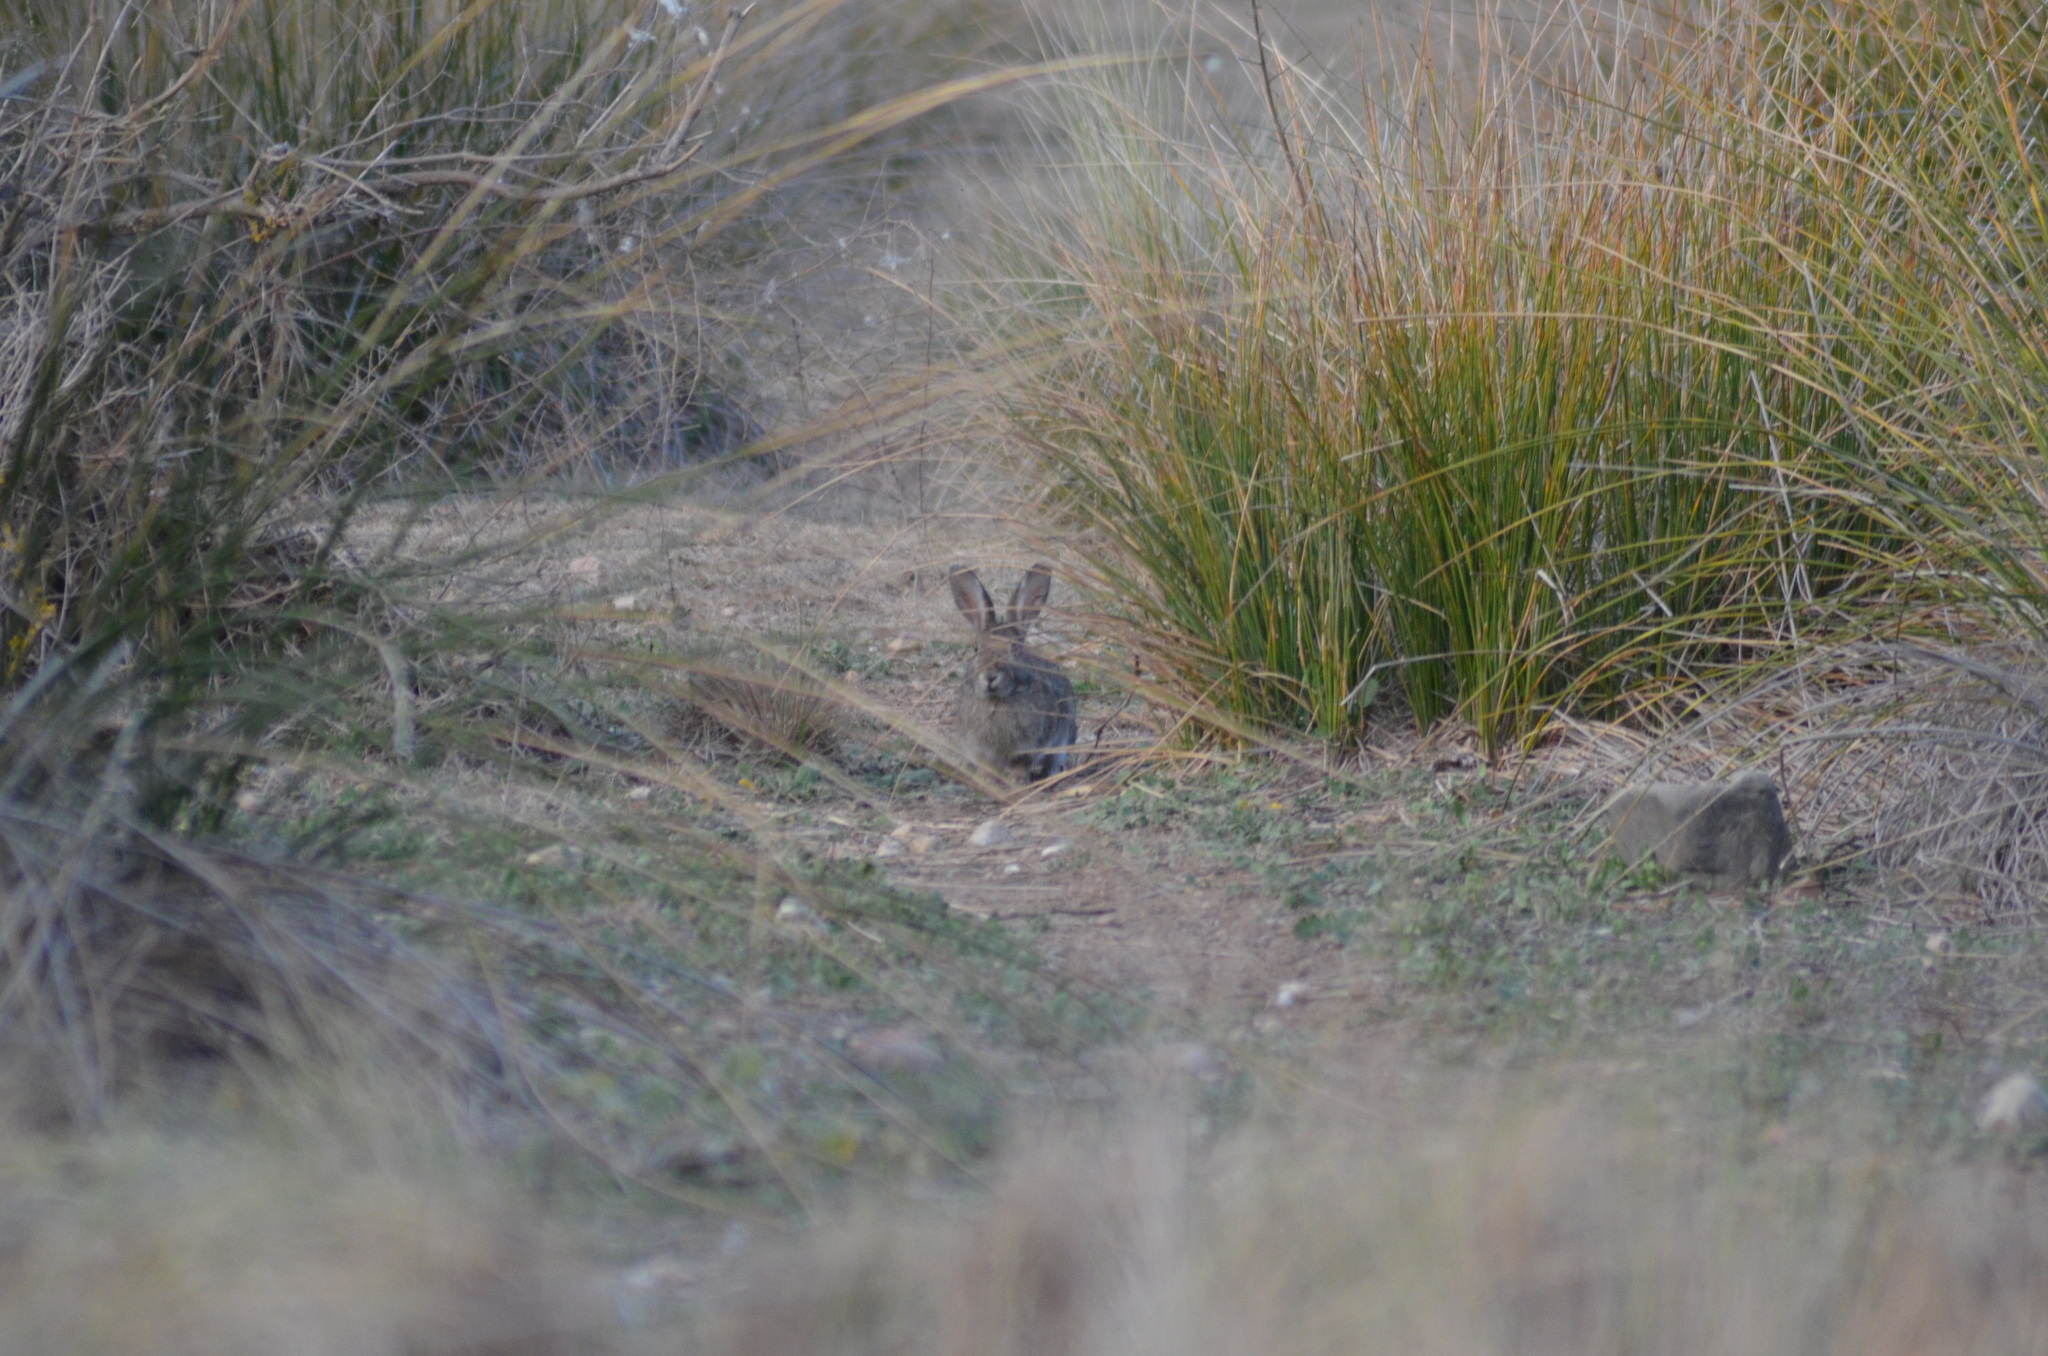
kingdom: Animalia
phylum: Chordata
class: Mammalia
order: Lagomorpha
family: Leporidae
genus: Oryctolagus
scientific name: Oryctolagus cuniculus
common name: European rabbit
